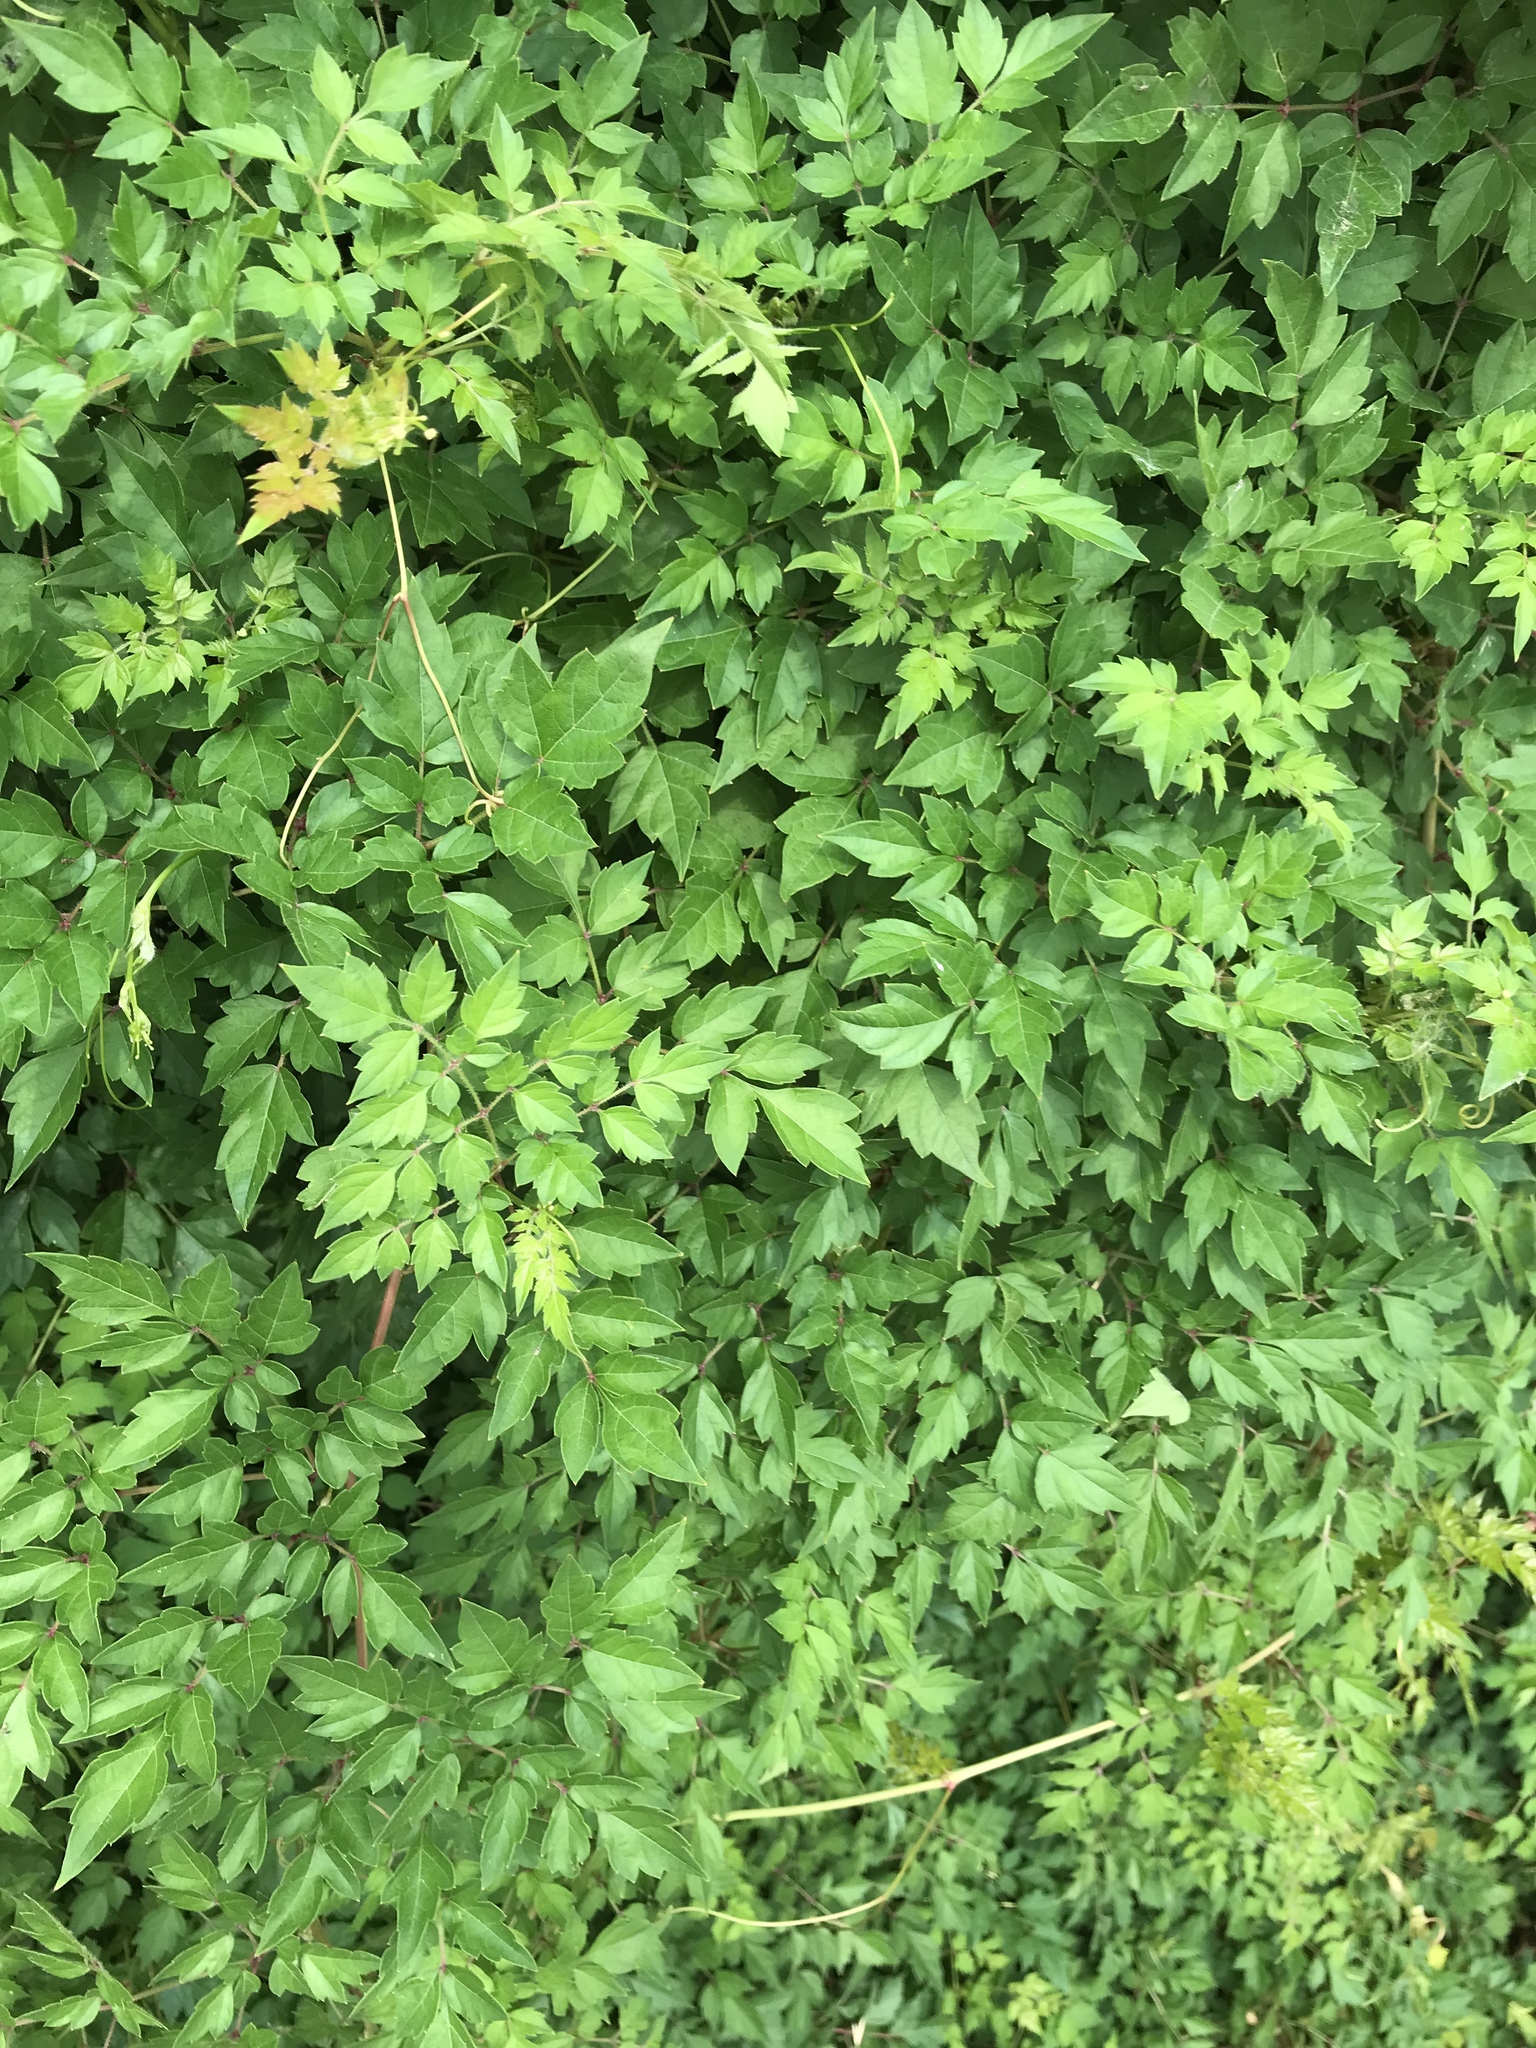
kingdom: Plantae
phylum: Tracheophyta
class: Magnoliopsida
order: Vitales
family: Vitaceae
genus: Nekemias
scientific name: Nekemias arborea
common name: Peppervine
